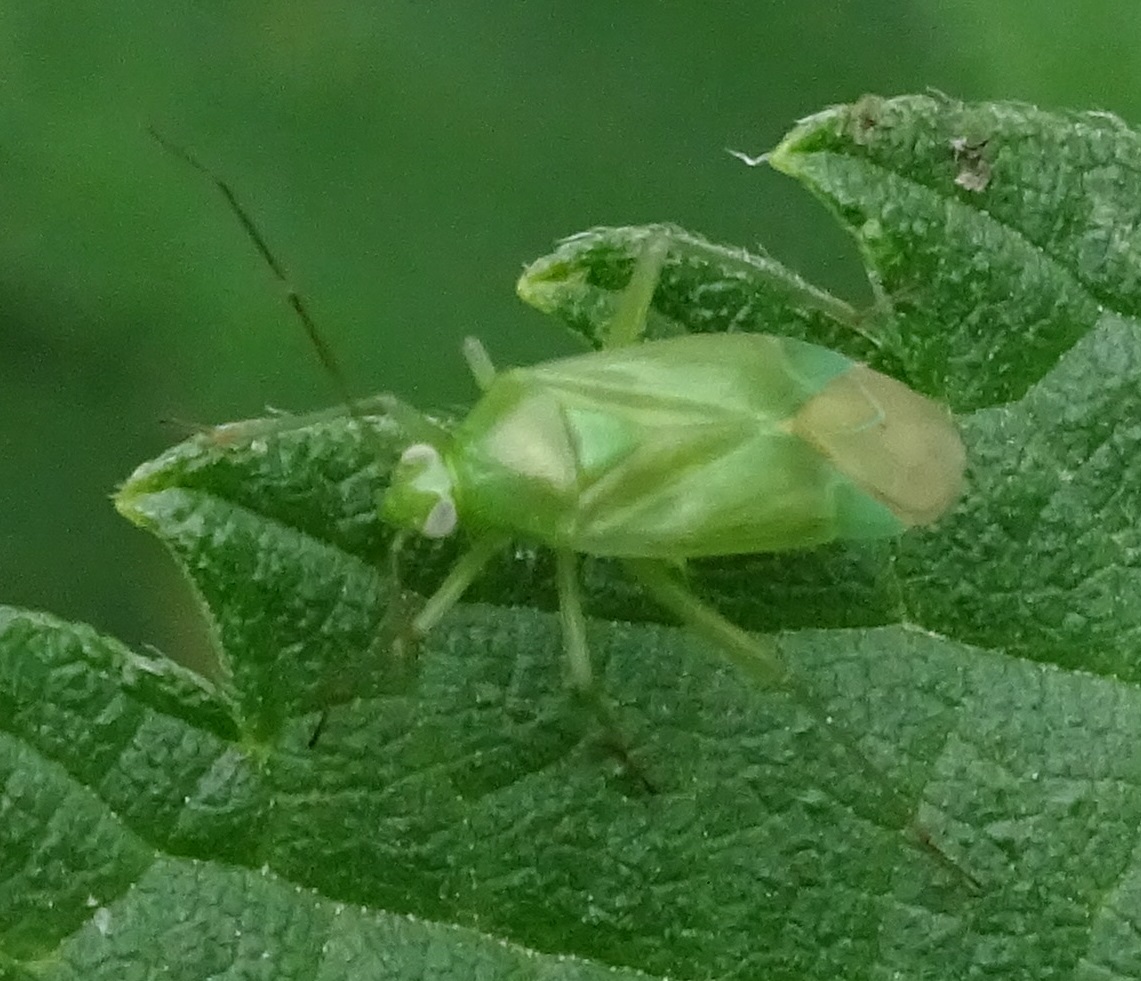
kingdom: Animalia
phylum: Arthropoda
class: Insecta
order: Hemiptera
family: Miridae
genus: Lygocoris
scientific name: Lygocoris pabulinus
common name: Common green capsid
